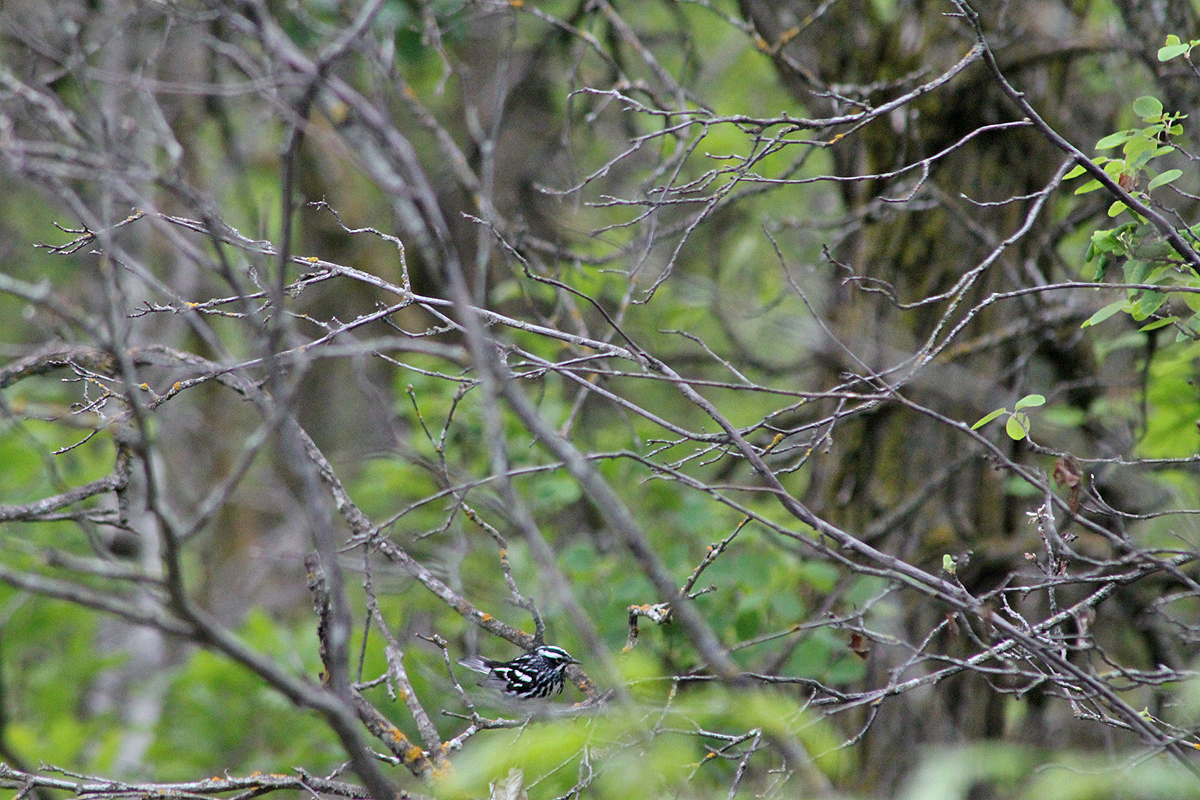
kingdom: Animalia
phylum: Chordata
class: Aves
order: Passeriformes
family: Parulidae
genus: Mniotilta
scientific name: Mniotilta varia
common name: Black-and-white warbler
